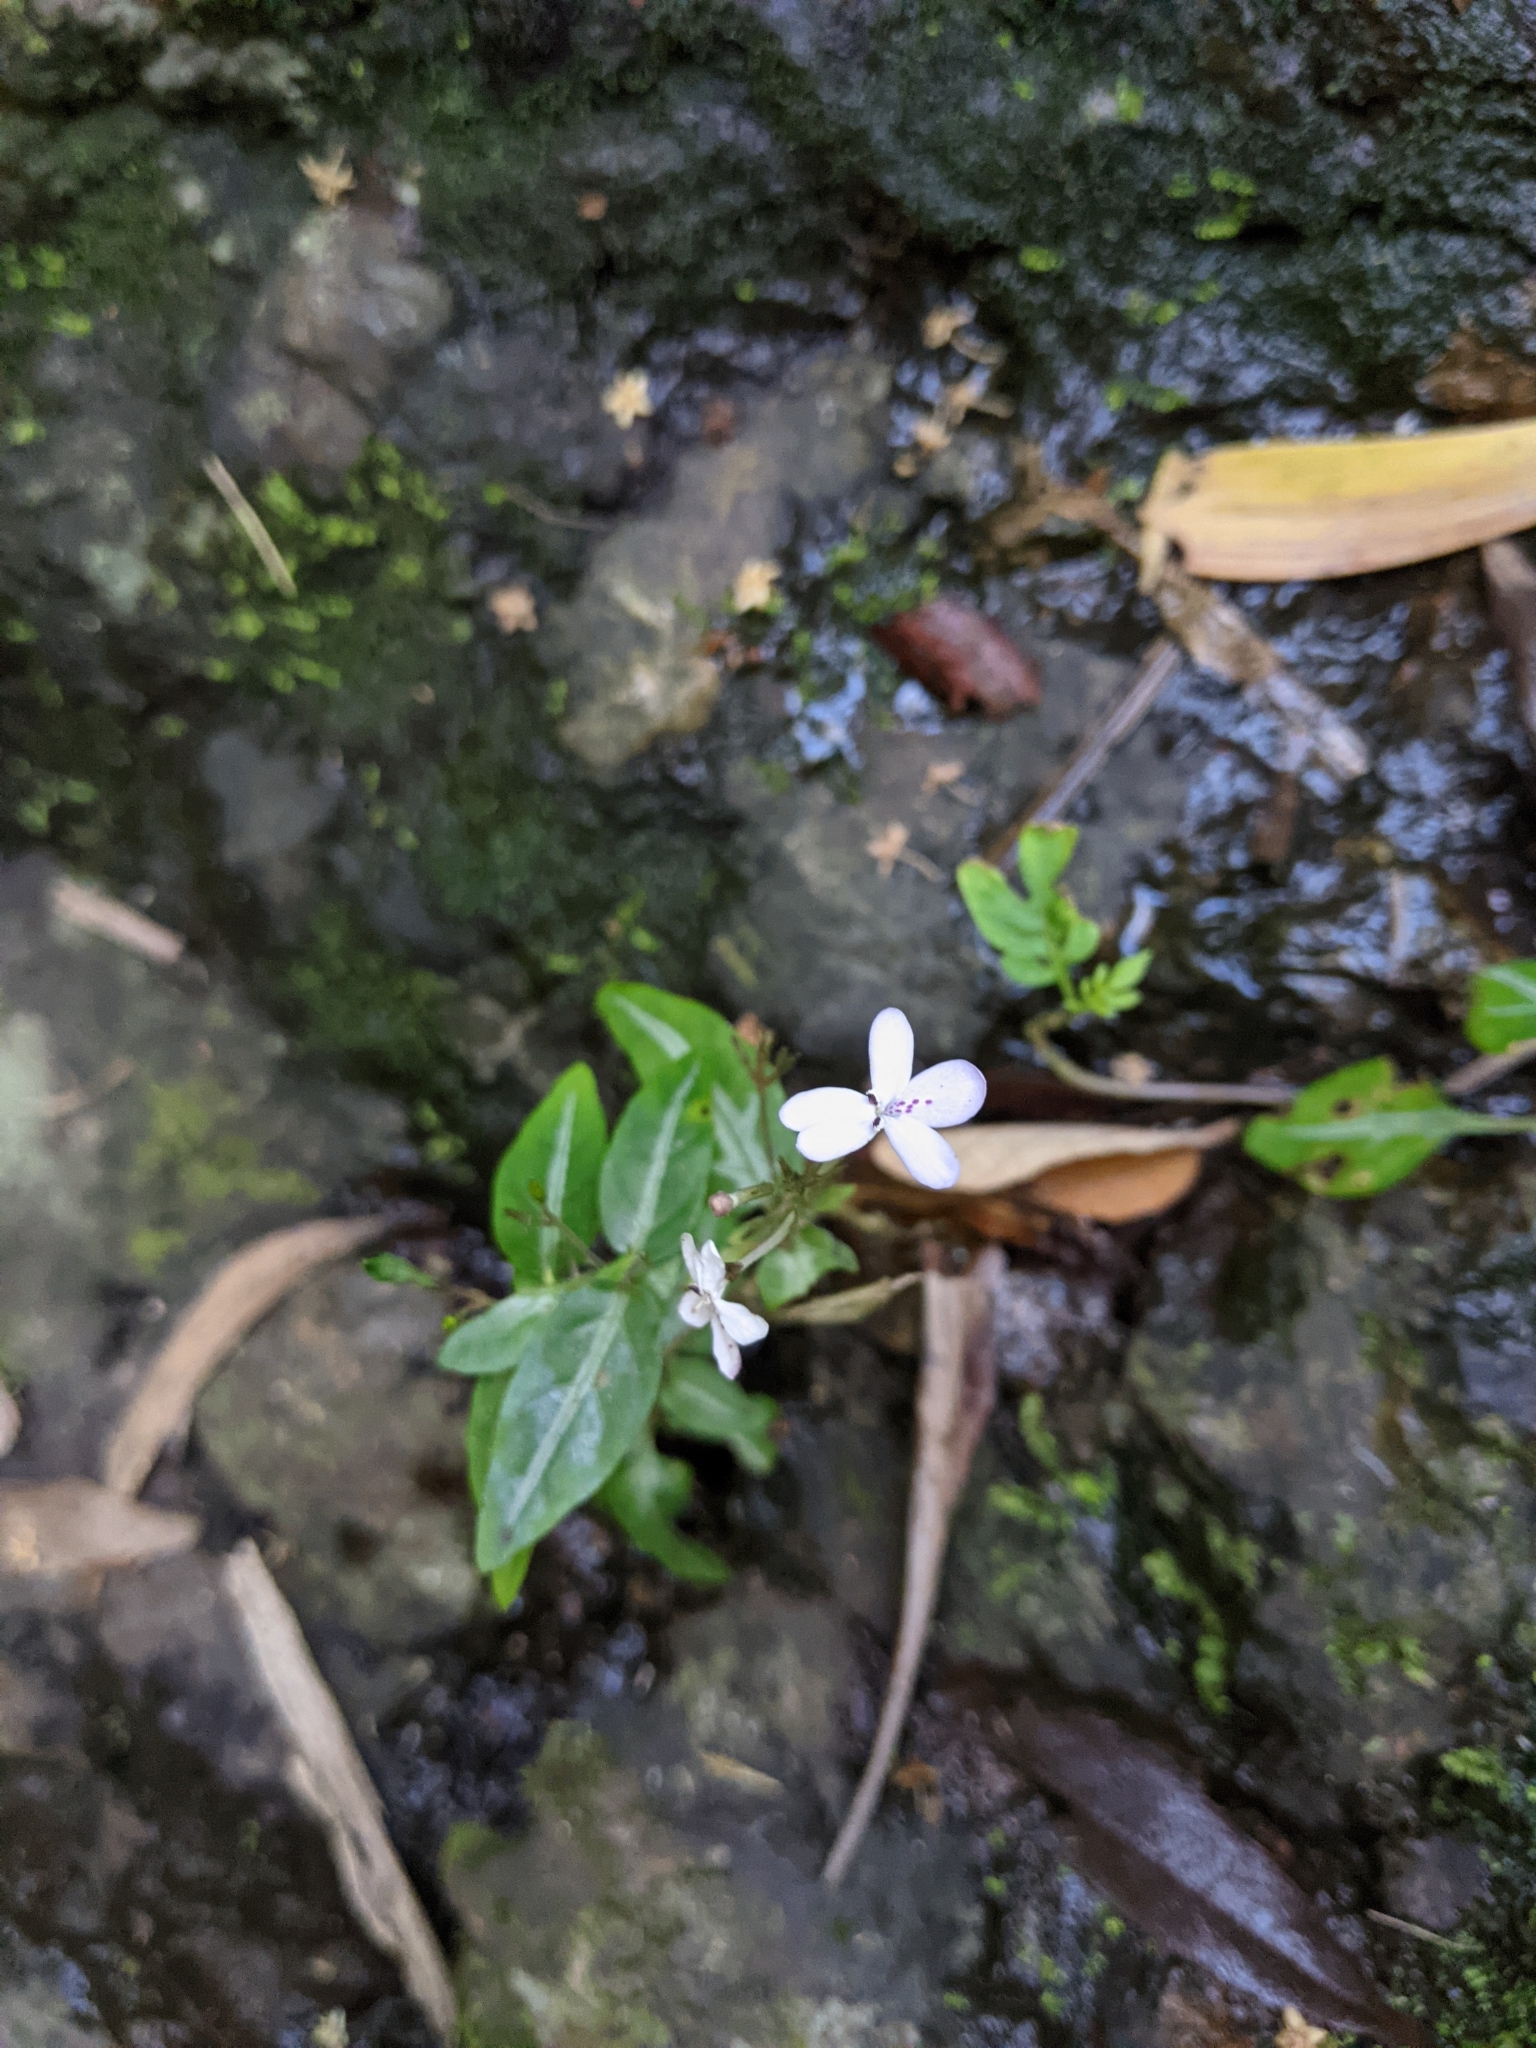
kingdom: Plantae
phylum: Tracheophyta
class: Magnoliopsida
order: Lamiales
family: Acanthaceae
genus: Pseuderanthemum
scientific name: Pseuderanthemum variabile
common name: Night and afternoon
